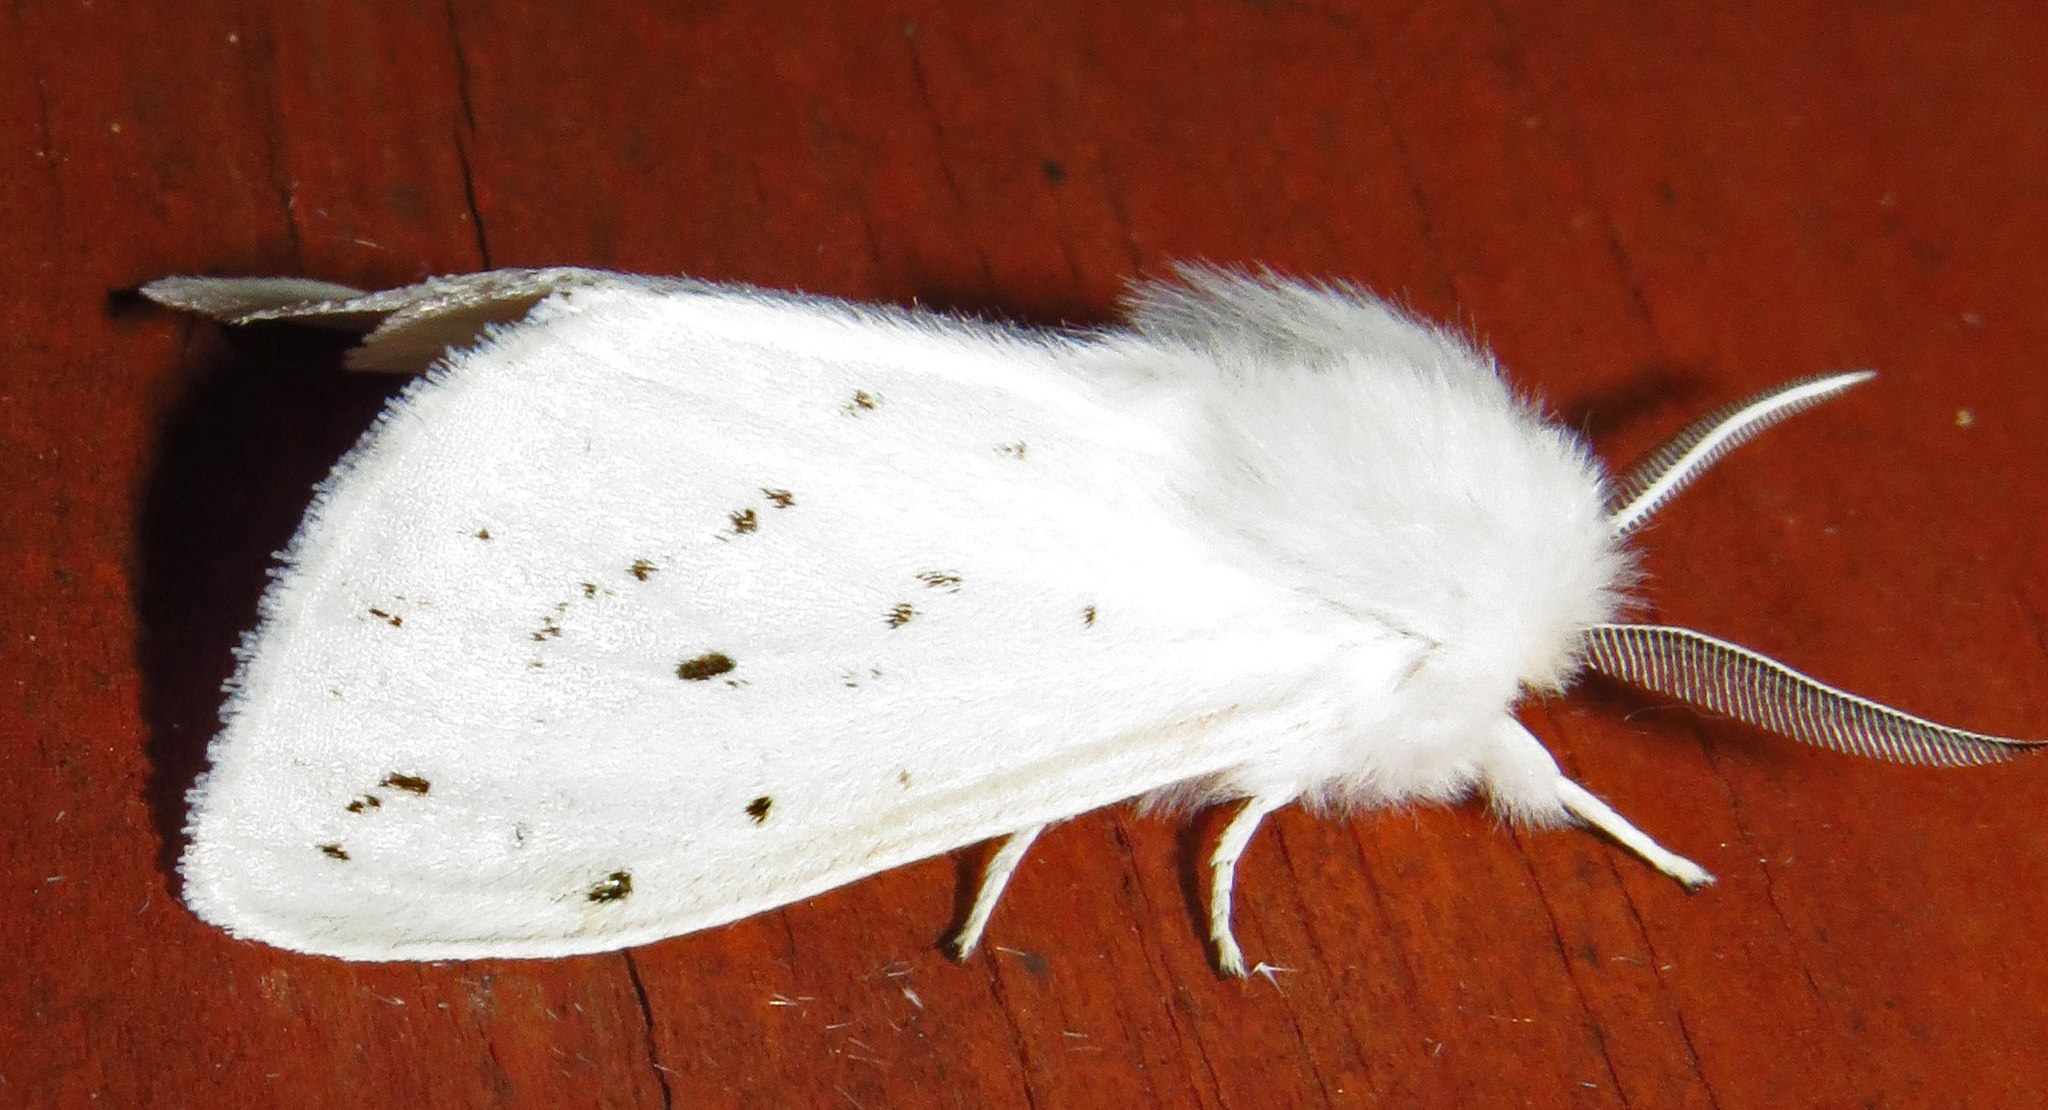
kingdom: Animalia
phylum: Arthropoda
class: Insecta
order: Lepidoptera
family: Erebidae
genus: Spilosoma
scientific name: Spilosoma congrua
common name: Agreeable tiger moth
